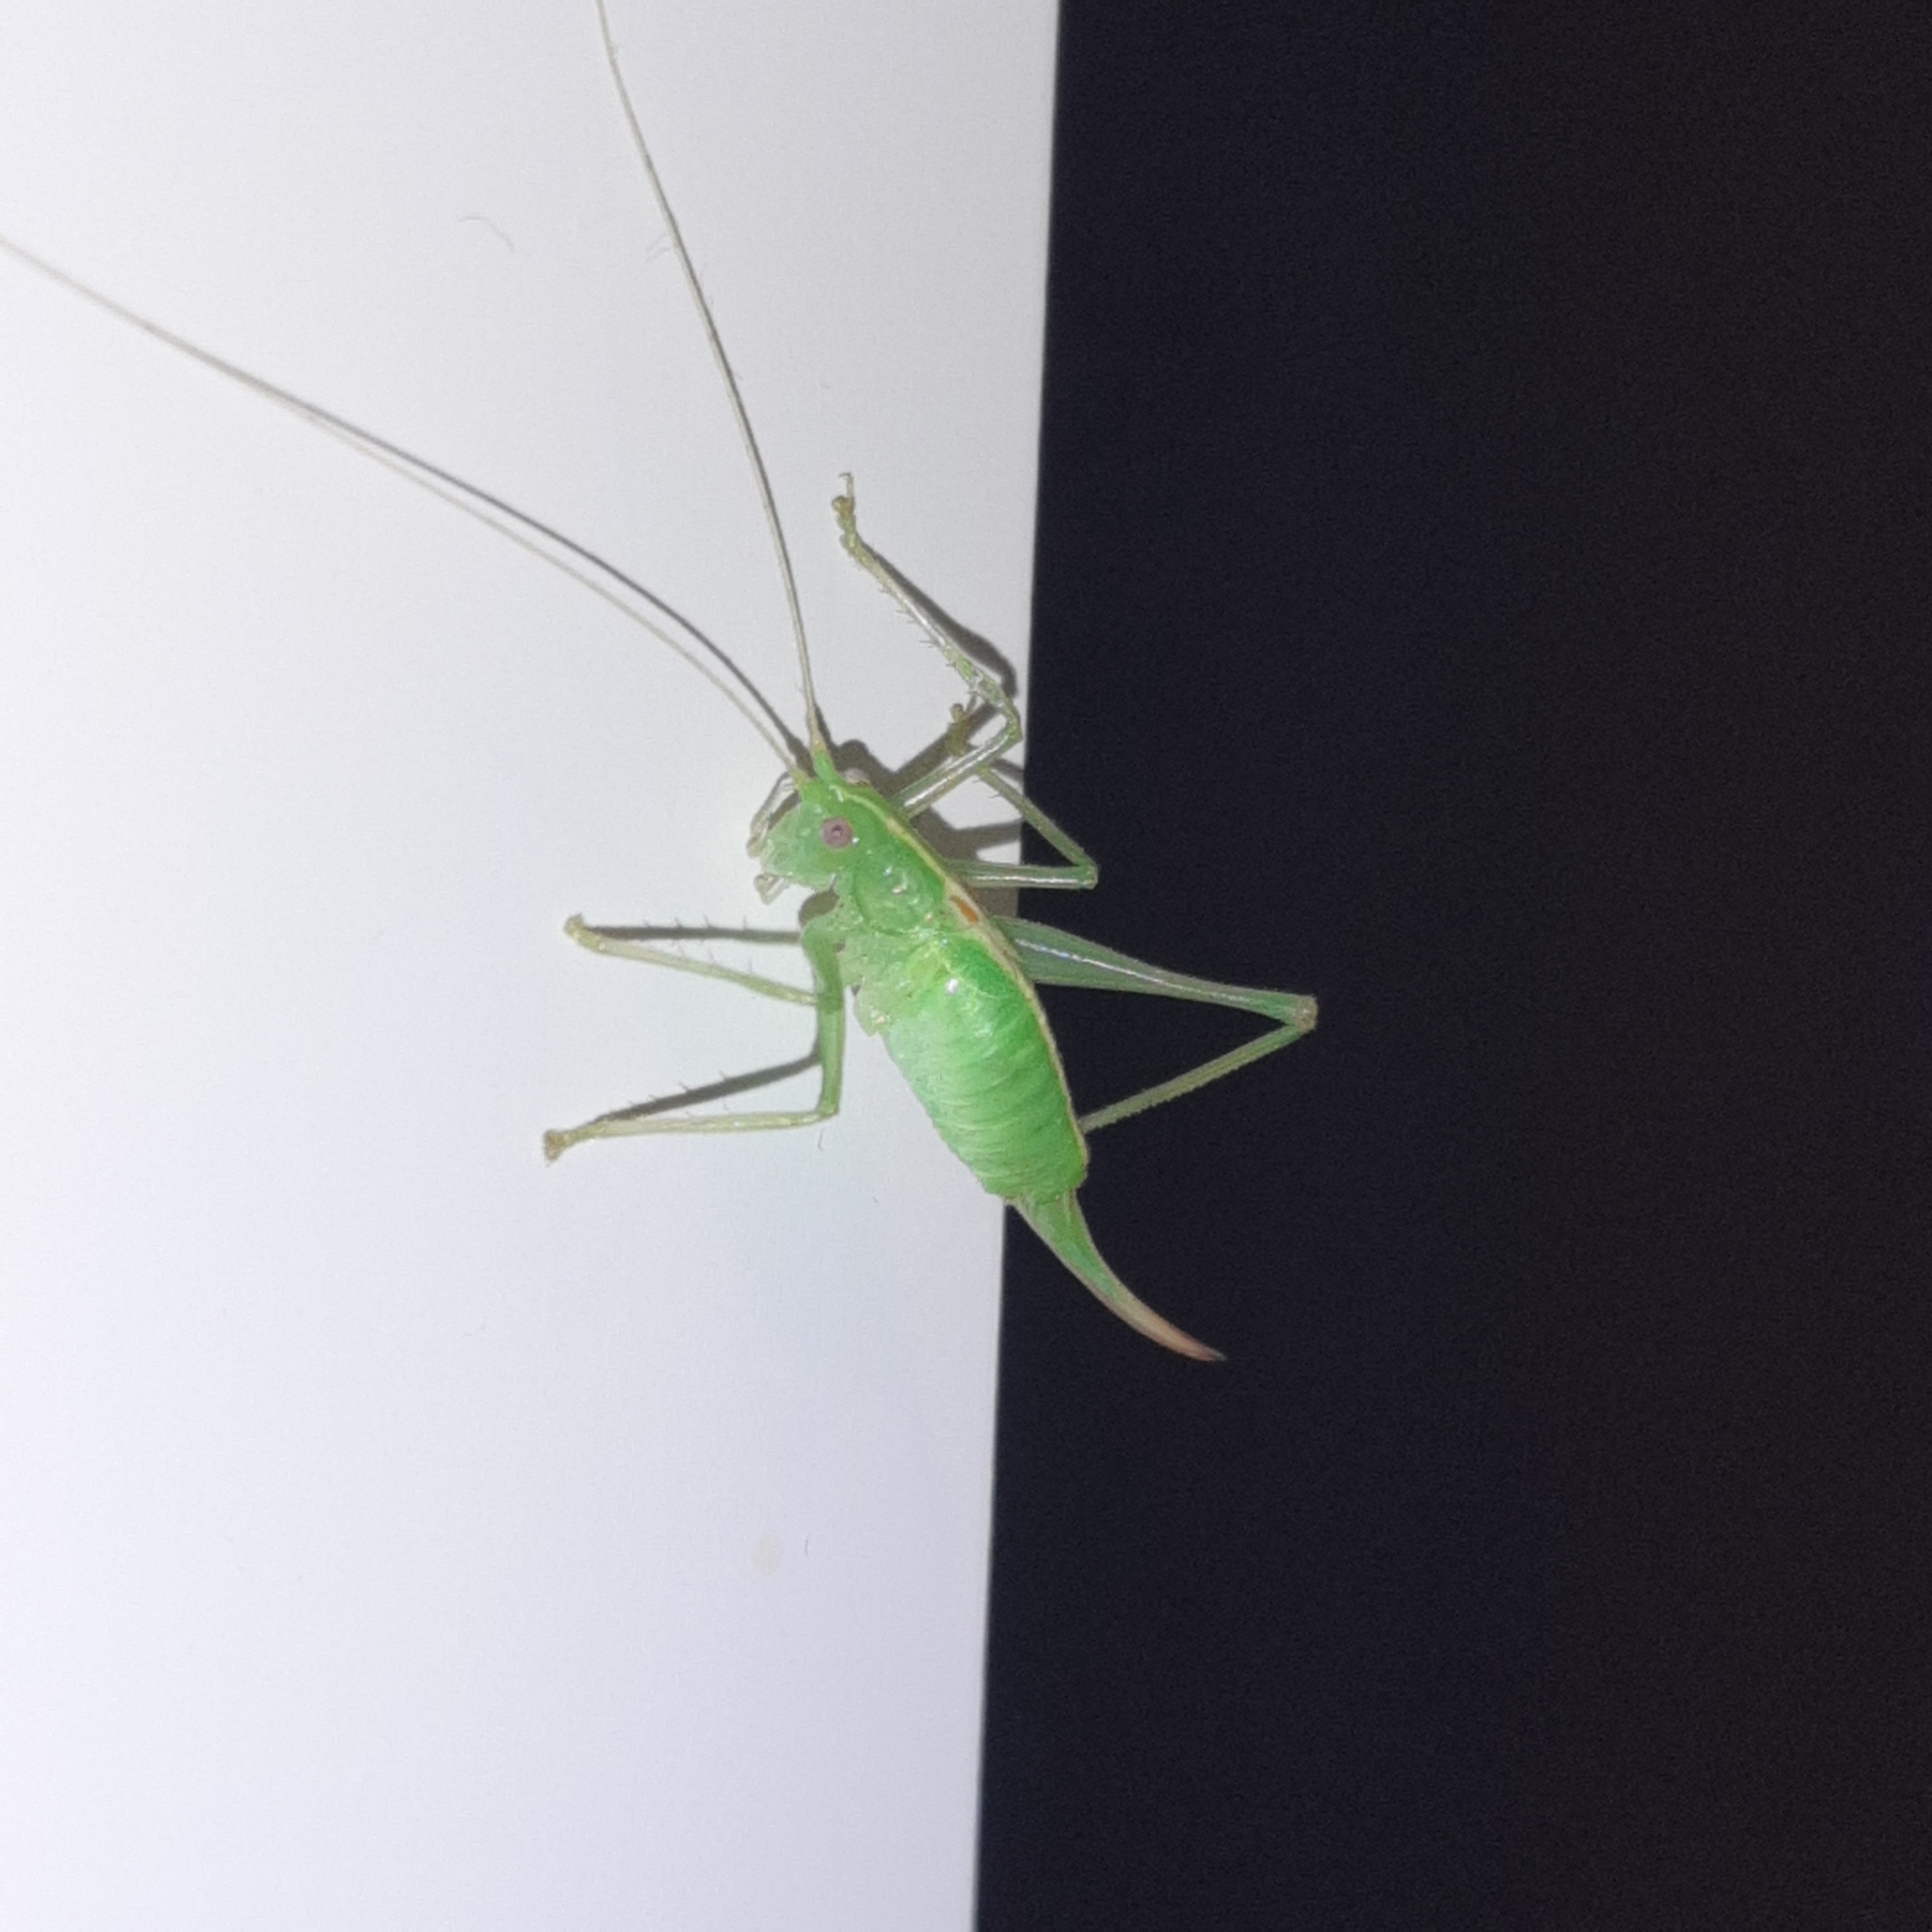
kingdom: Animalia
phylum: Arthropoda
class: Insecta
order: Orthoptera
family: Tettigoniidae
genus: Meconema
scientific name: Meconema meridionale
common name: Southern oak bush-cricket
